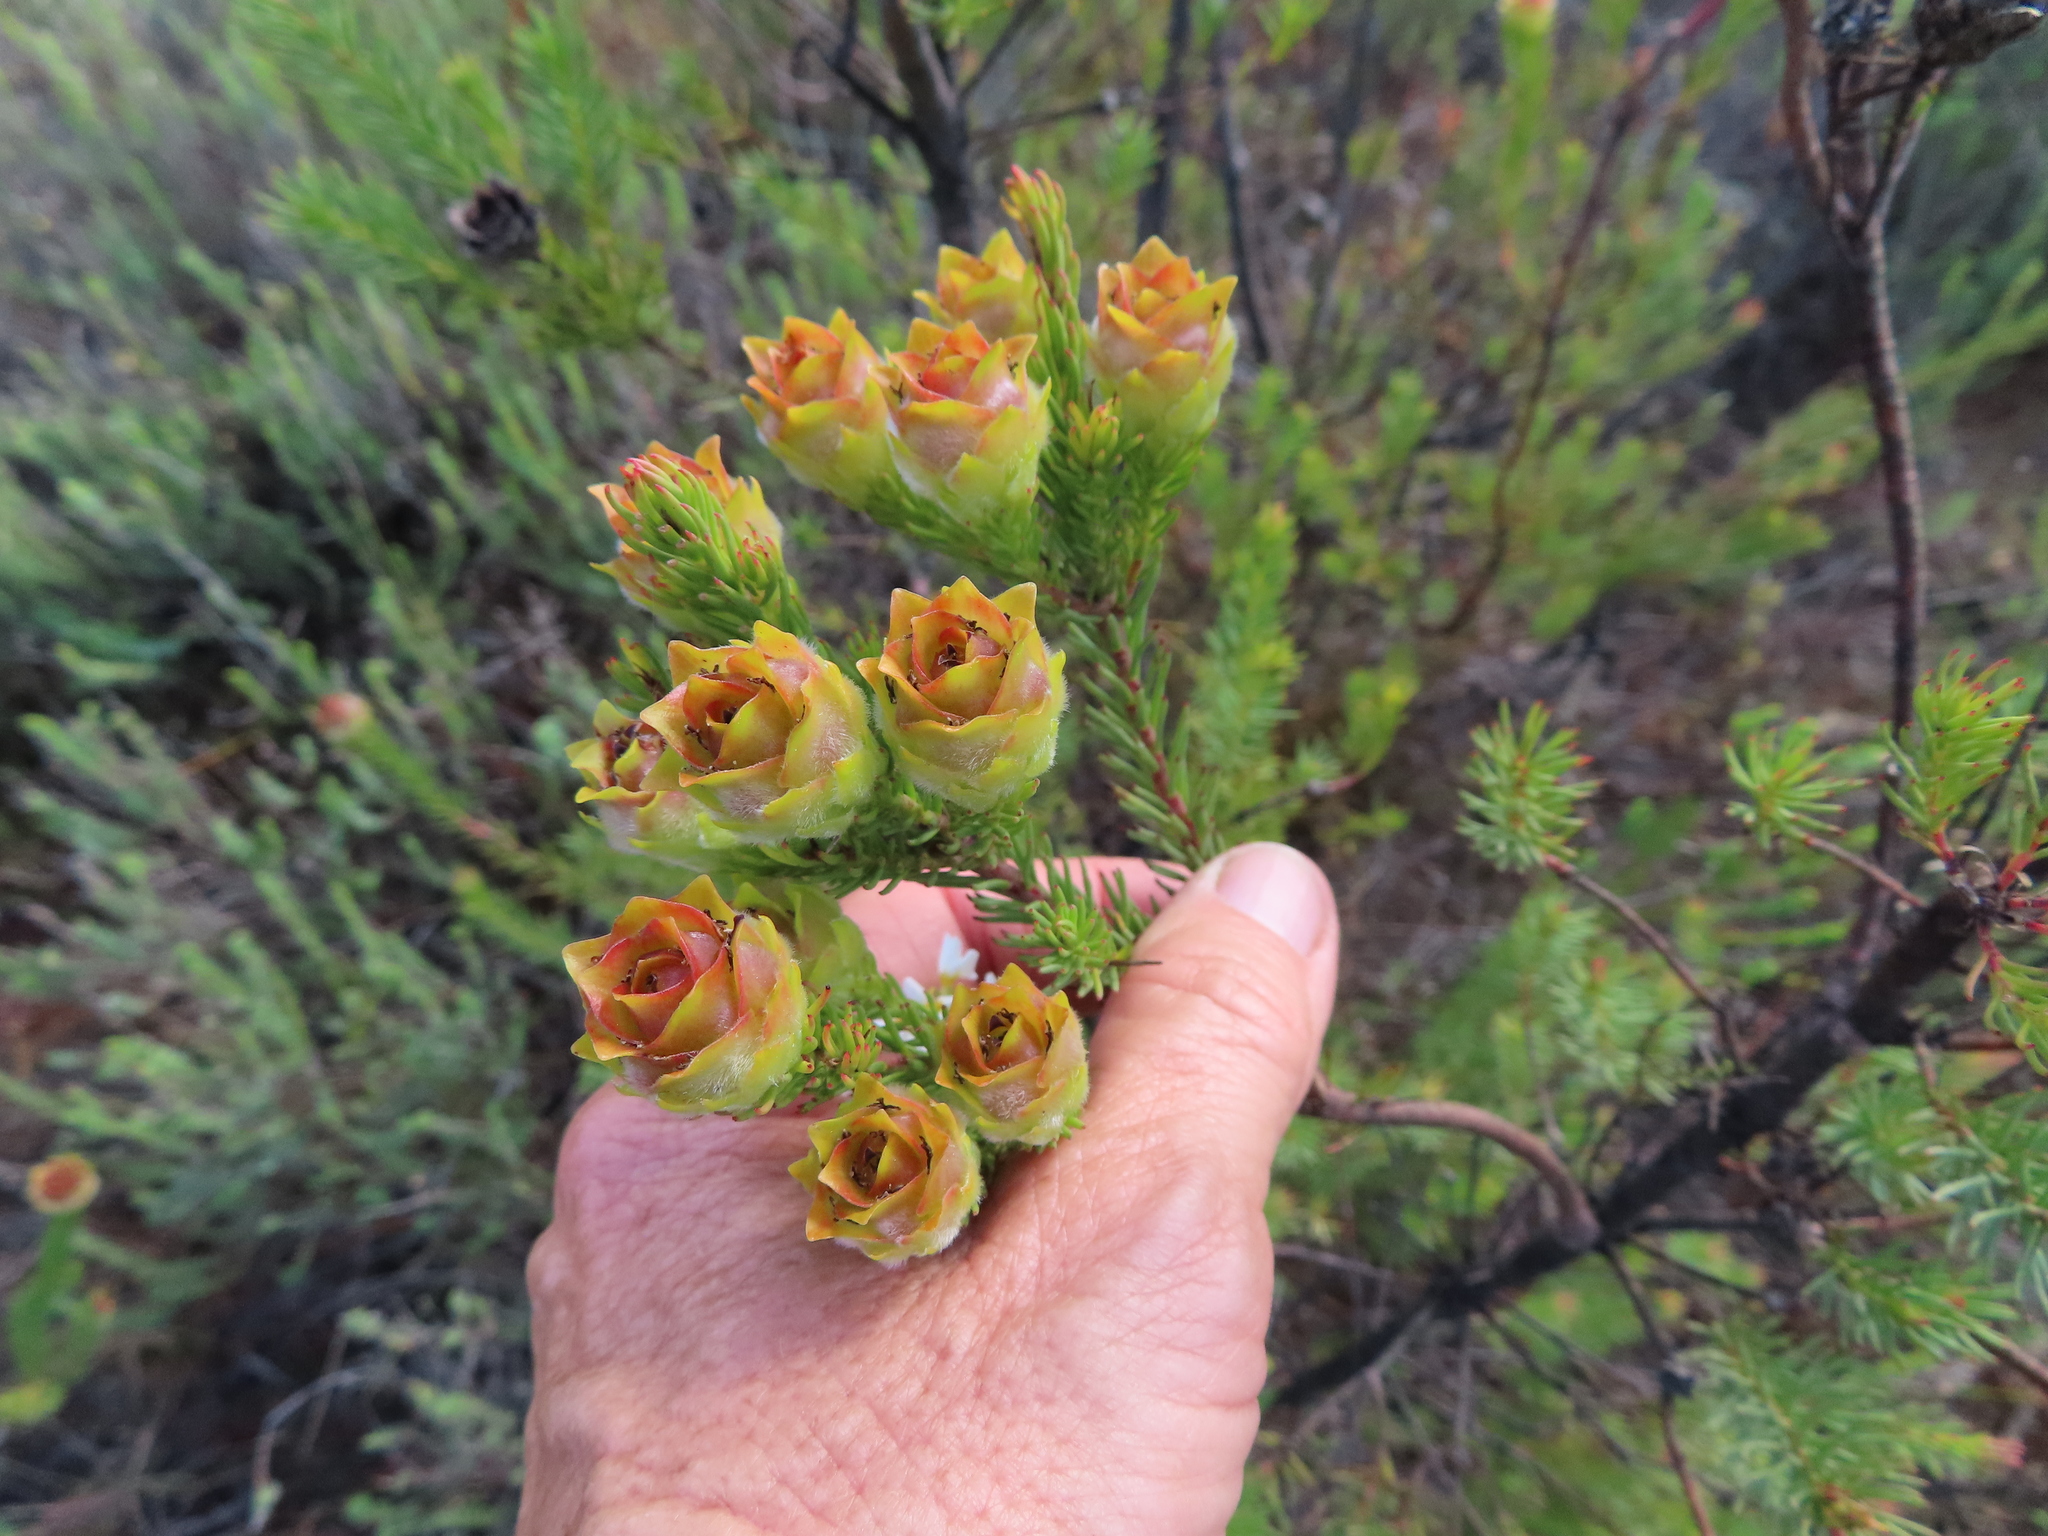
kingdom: Plantae
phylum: Tracheophyta
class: Magnoliopsida
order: Proteales
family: Proteaceae
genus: Leucadendron
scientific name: Leucadendron laxum
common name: Bredasdorp conebush
